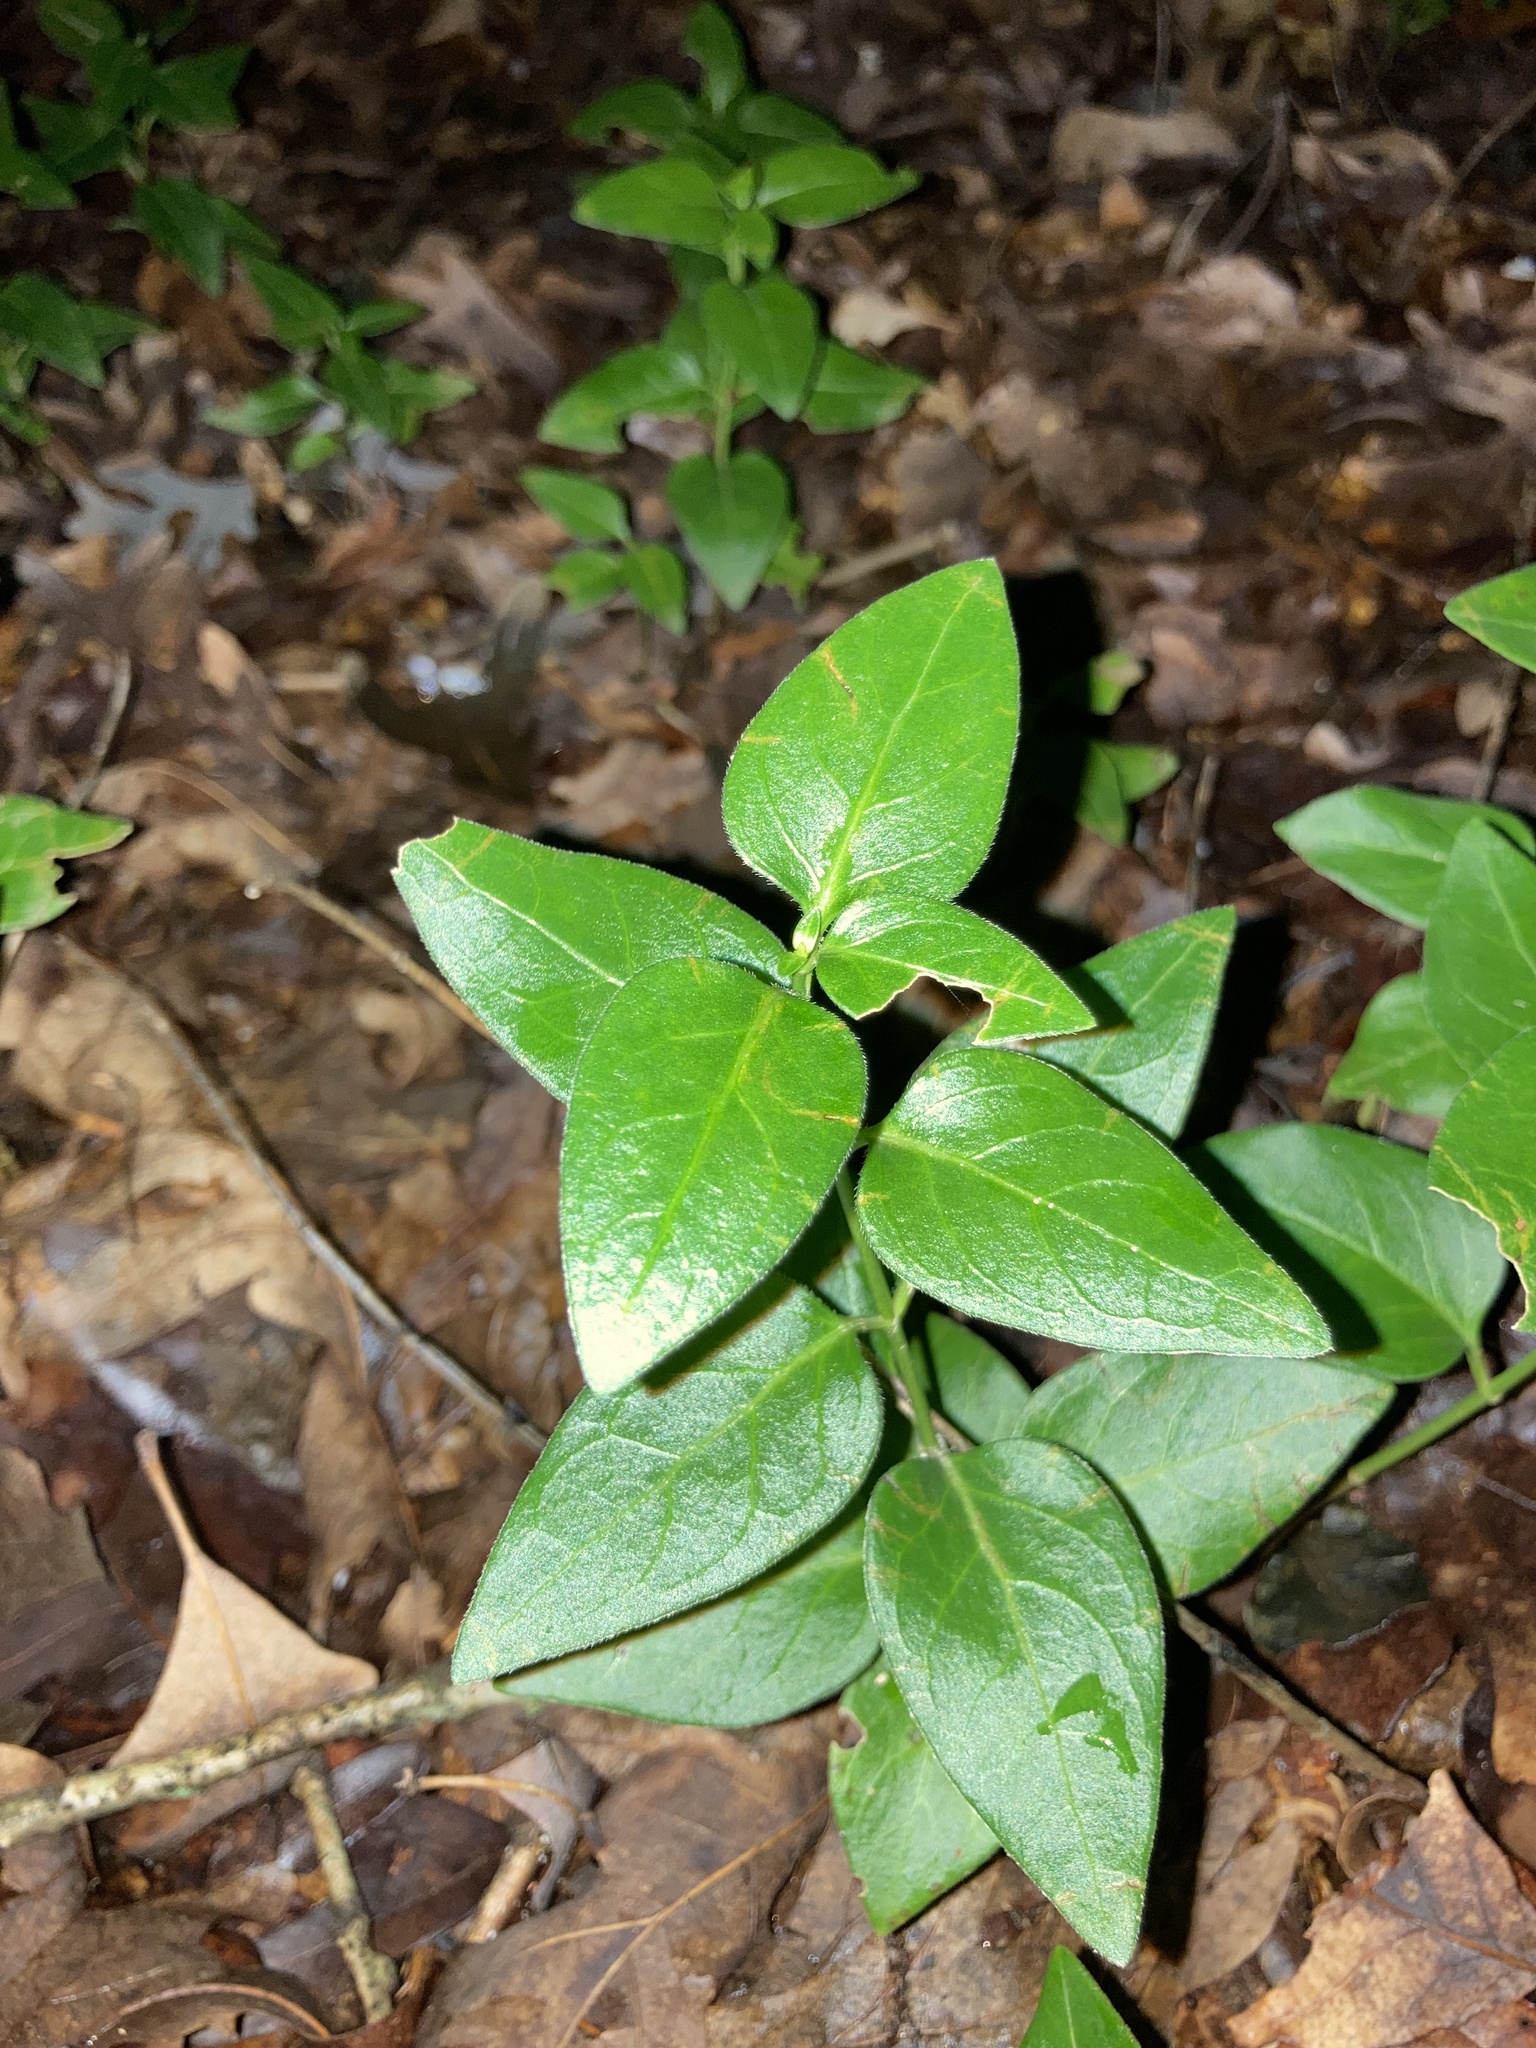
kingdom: Plantae
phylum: Tracheophyta
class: Magnoliopsida
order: Gentianales
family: Apocynaceae
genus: Vinca
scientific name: Vinca major
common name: Greater periwinkle
